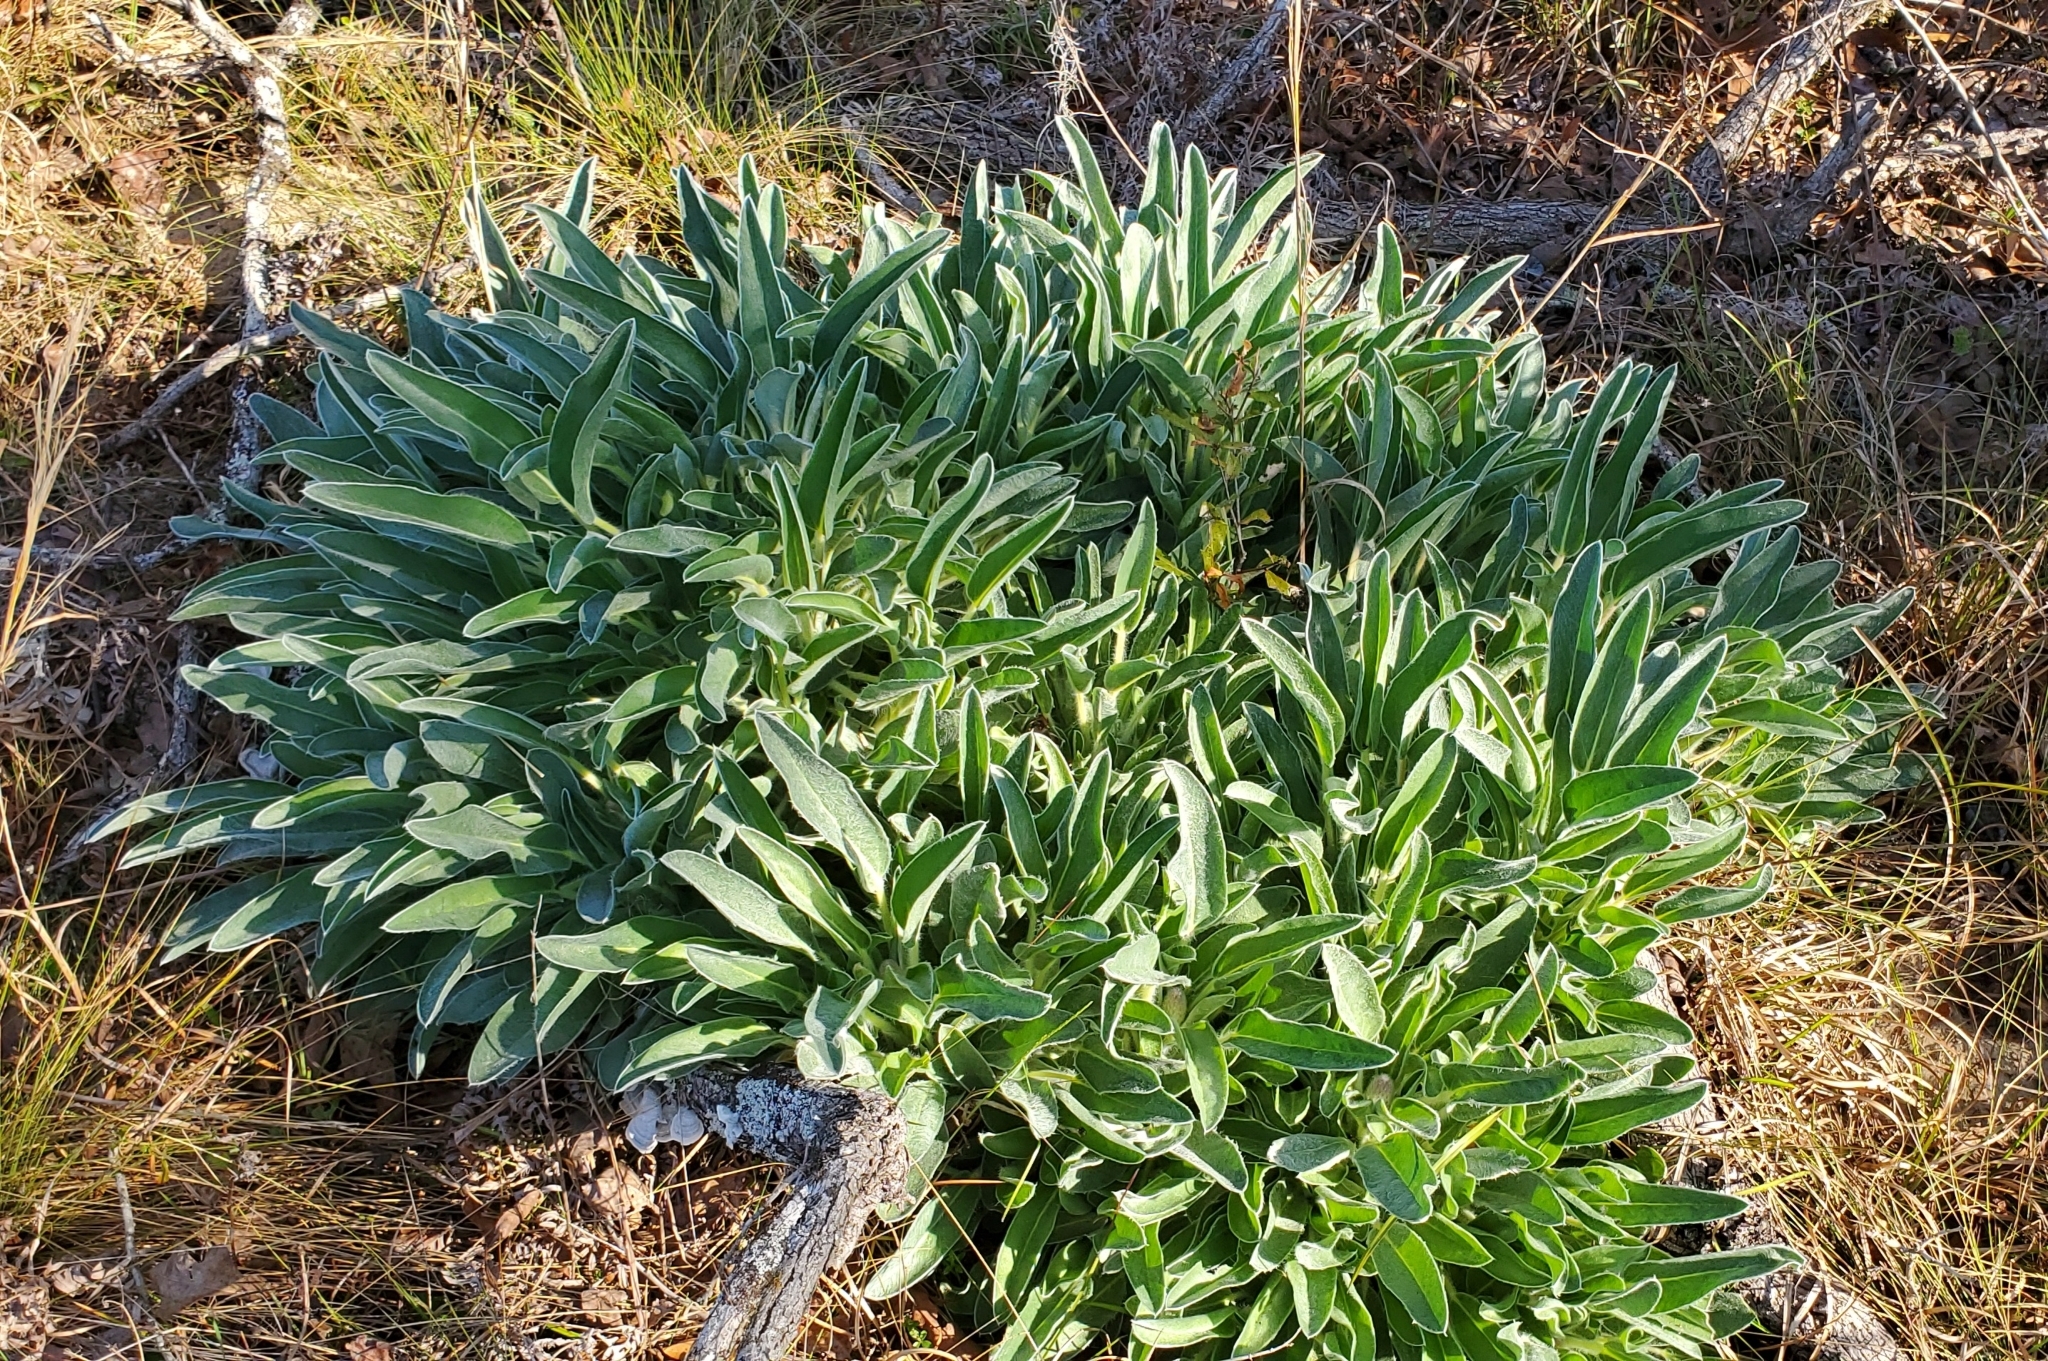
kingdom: Plantae
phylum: Tracheophyta
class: Magnoliopsida
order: Fabales
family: Fabaceae
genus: Lupinus
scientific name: Lupinus villosus
